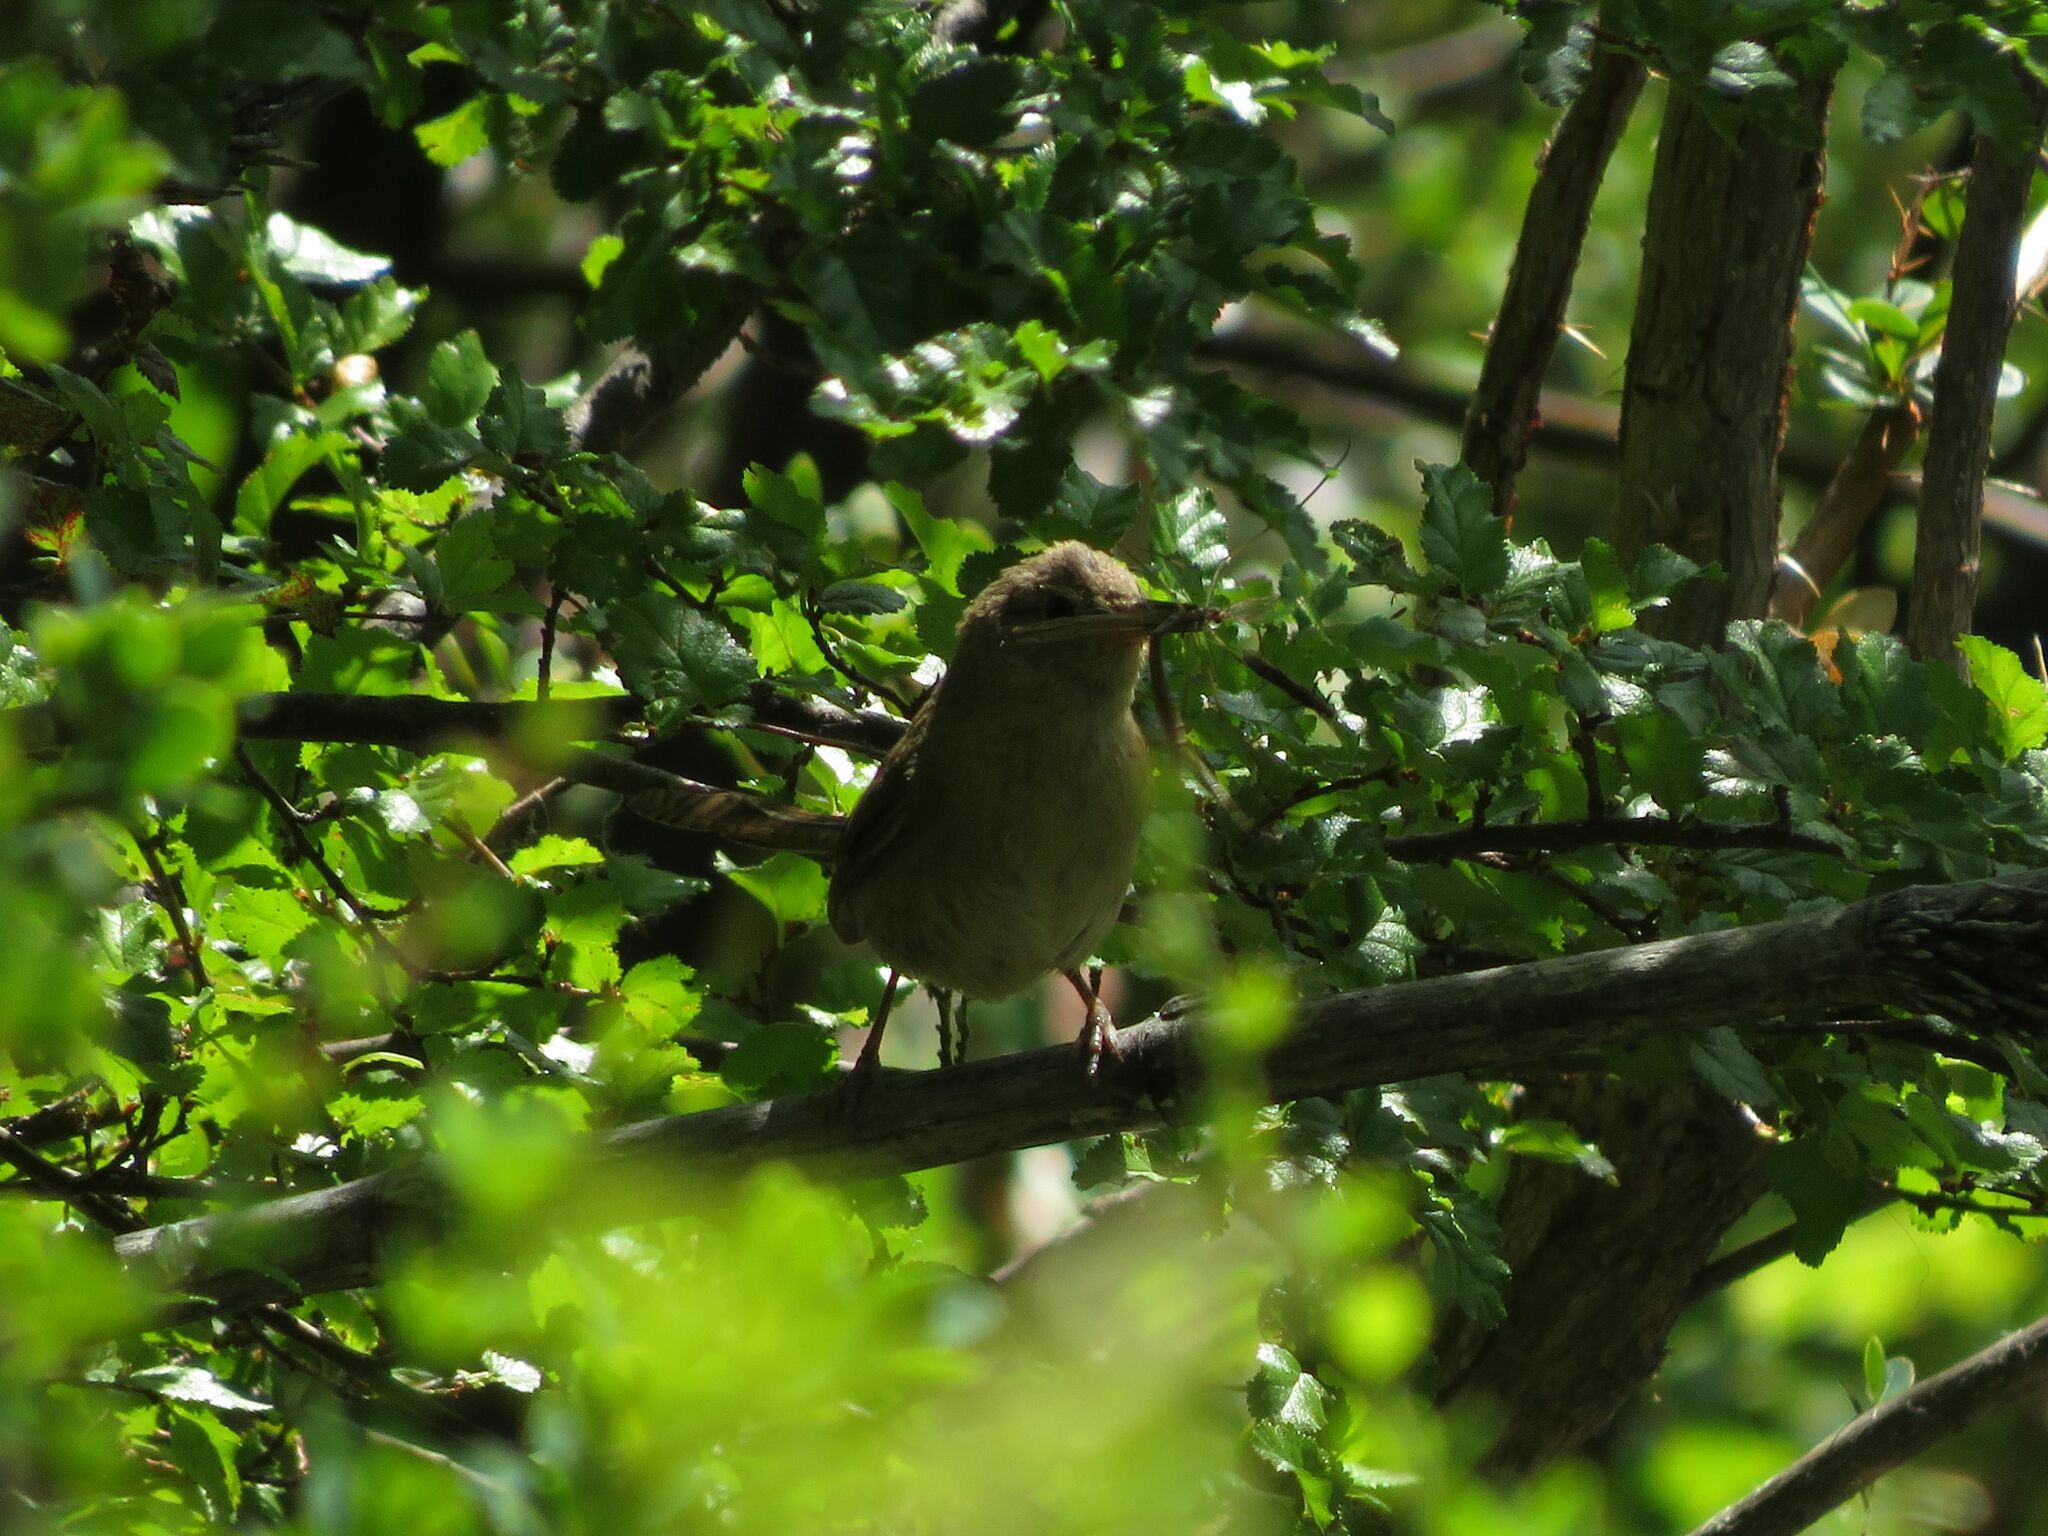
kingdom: Animalia
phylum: Chordata
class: Aves
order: Passeriformes
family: Troglodytidae
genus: Troglodytes
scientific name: Troglodytes aedon
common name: House wren
